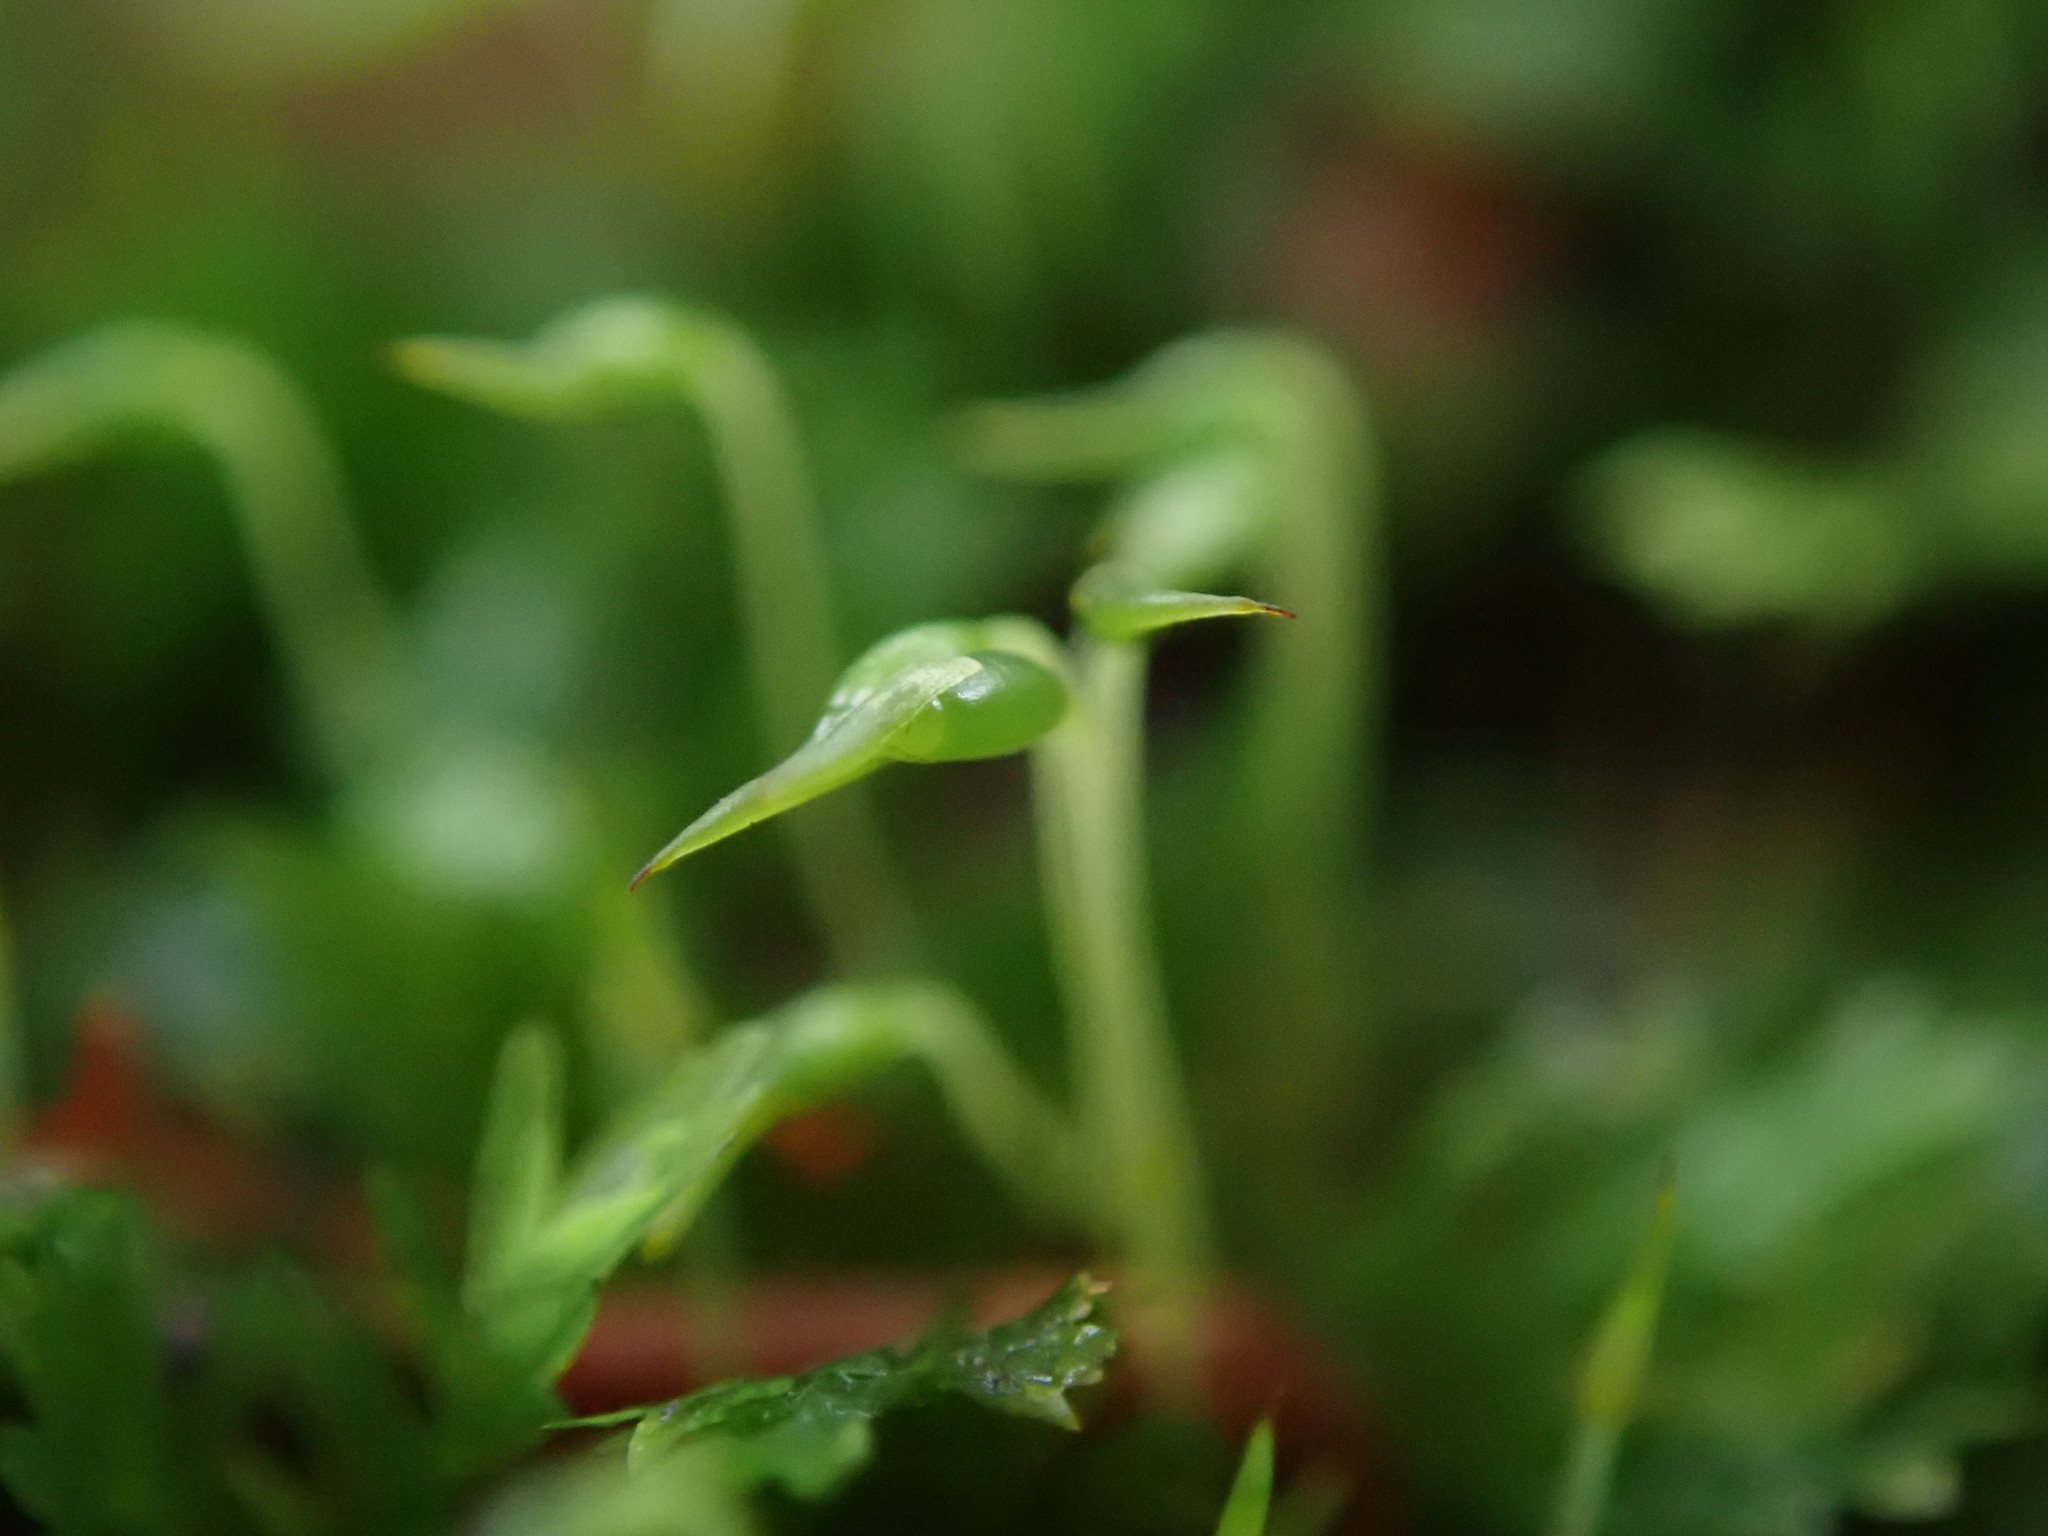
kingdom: Plantae
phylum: Bryophyta
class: Bryopsida
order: Dicranales
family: Fissidentaceae
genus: Fissidens
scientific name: Fissidens taxifolius
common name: Yew-leaved pocket moss
